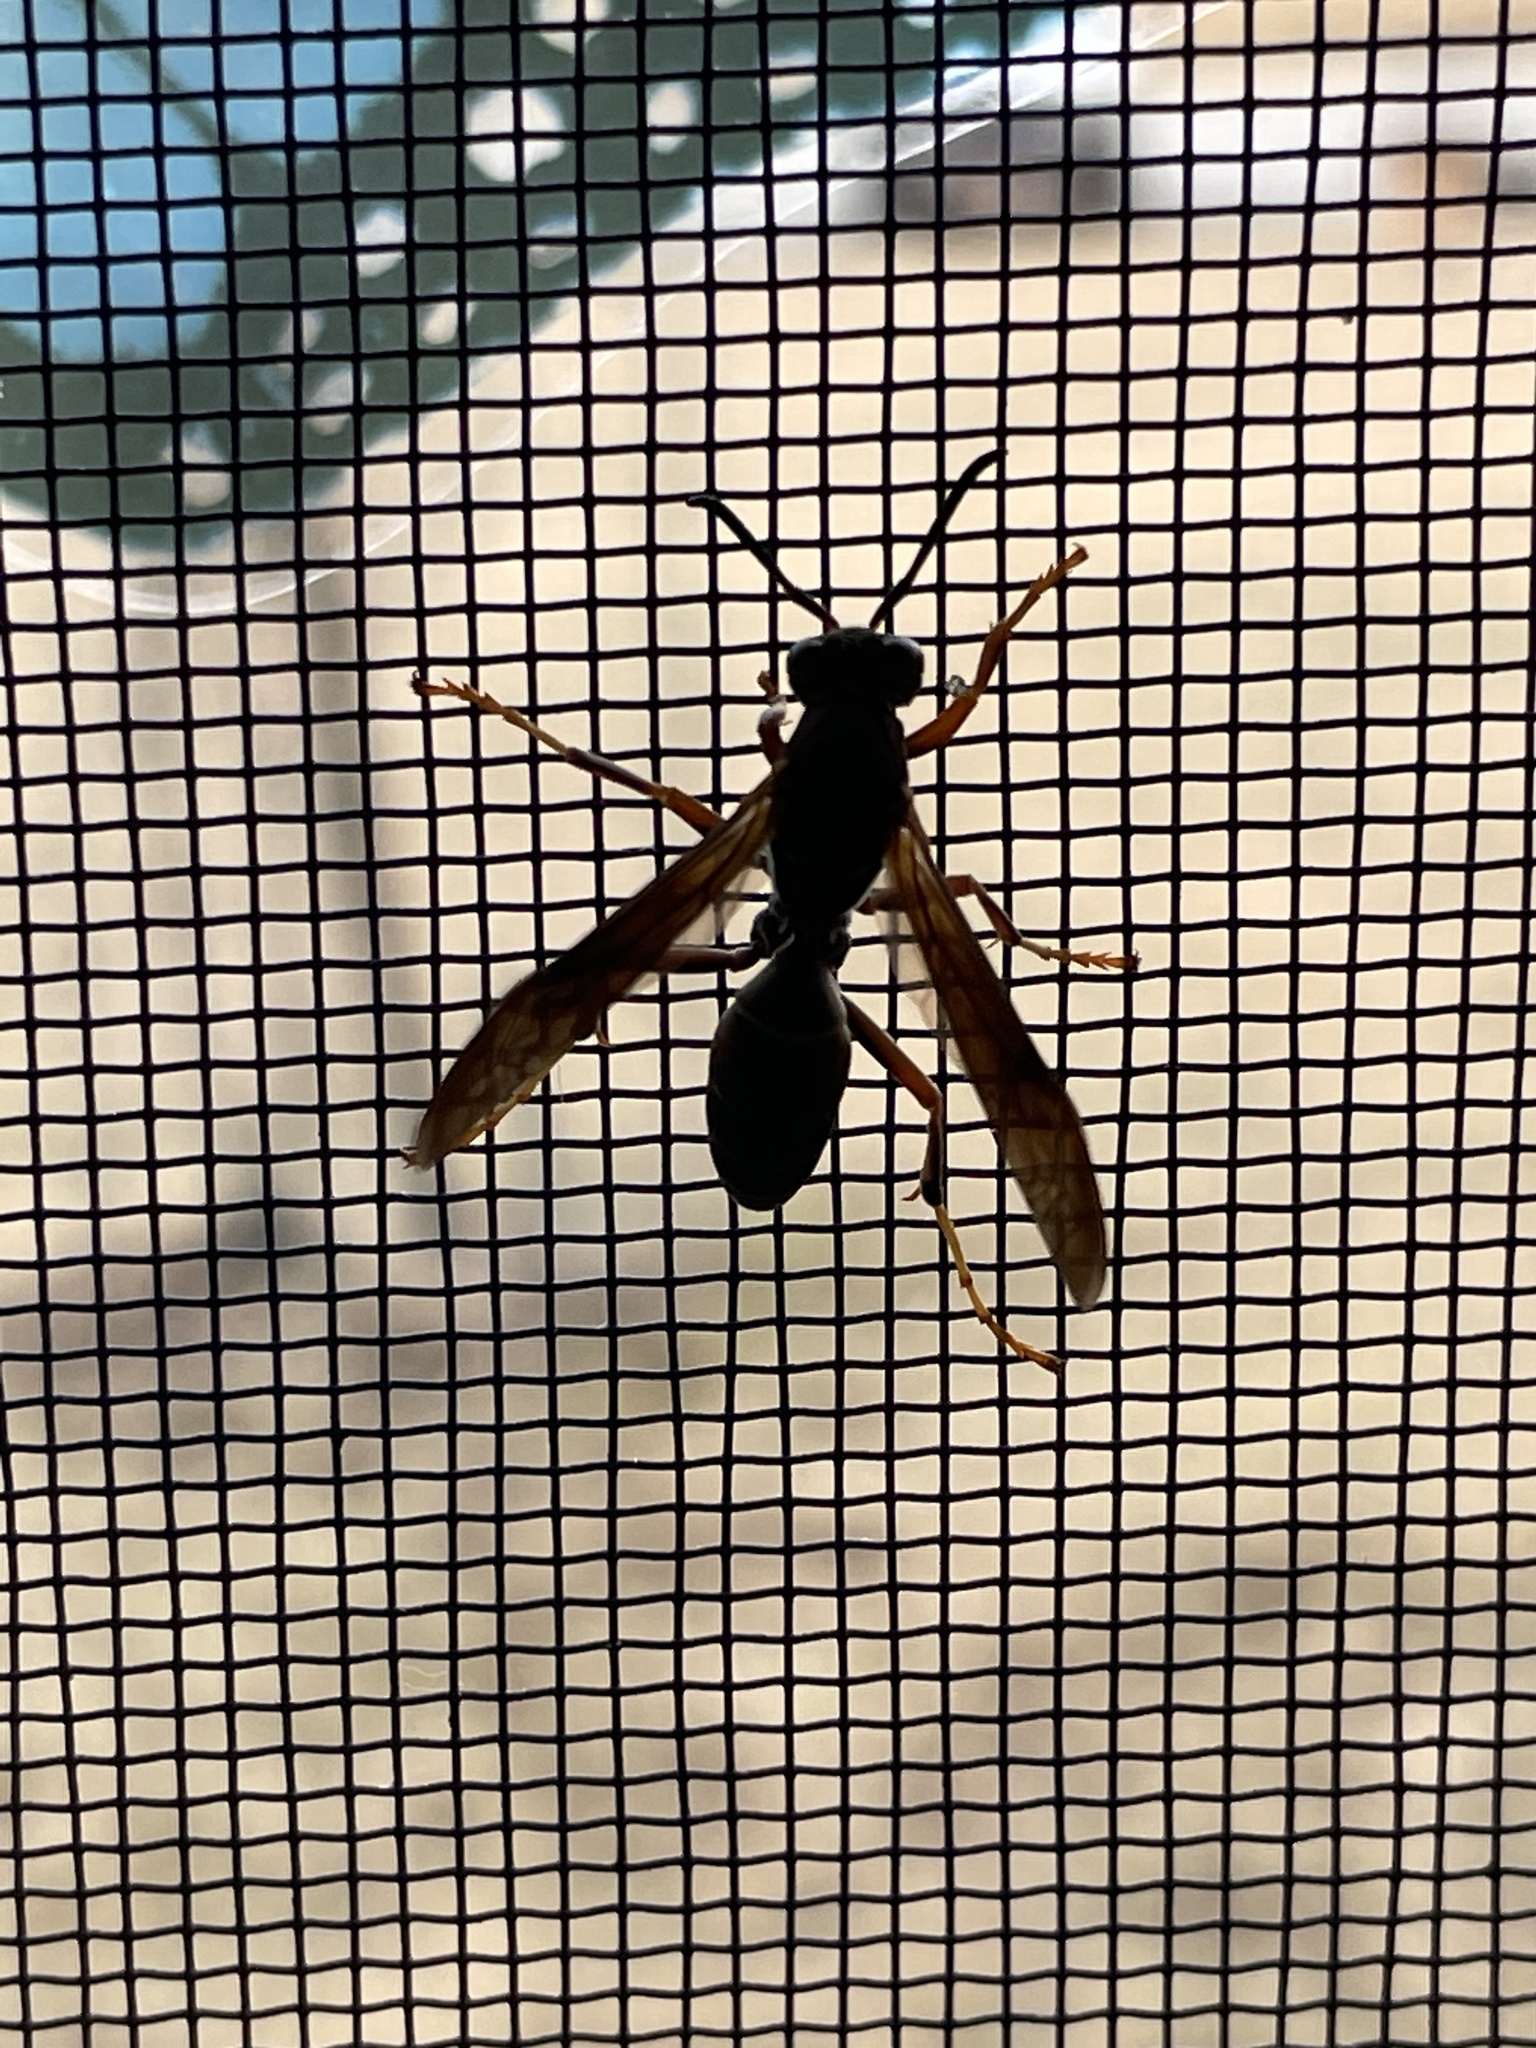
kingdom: Animalia
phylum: Arthropoda
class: Insecta
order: Hymenoptera
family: Vespidae
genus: Fuscopolistes
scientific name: Fuscopolistes
